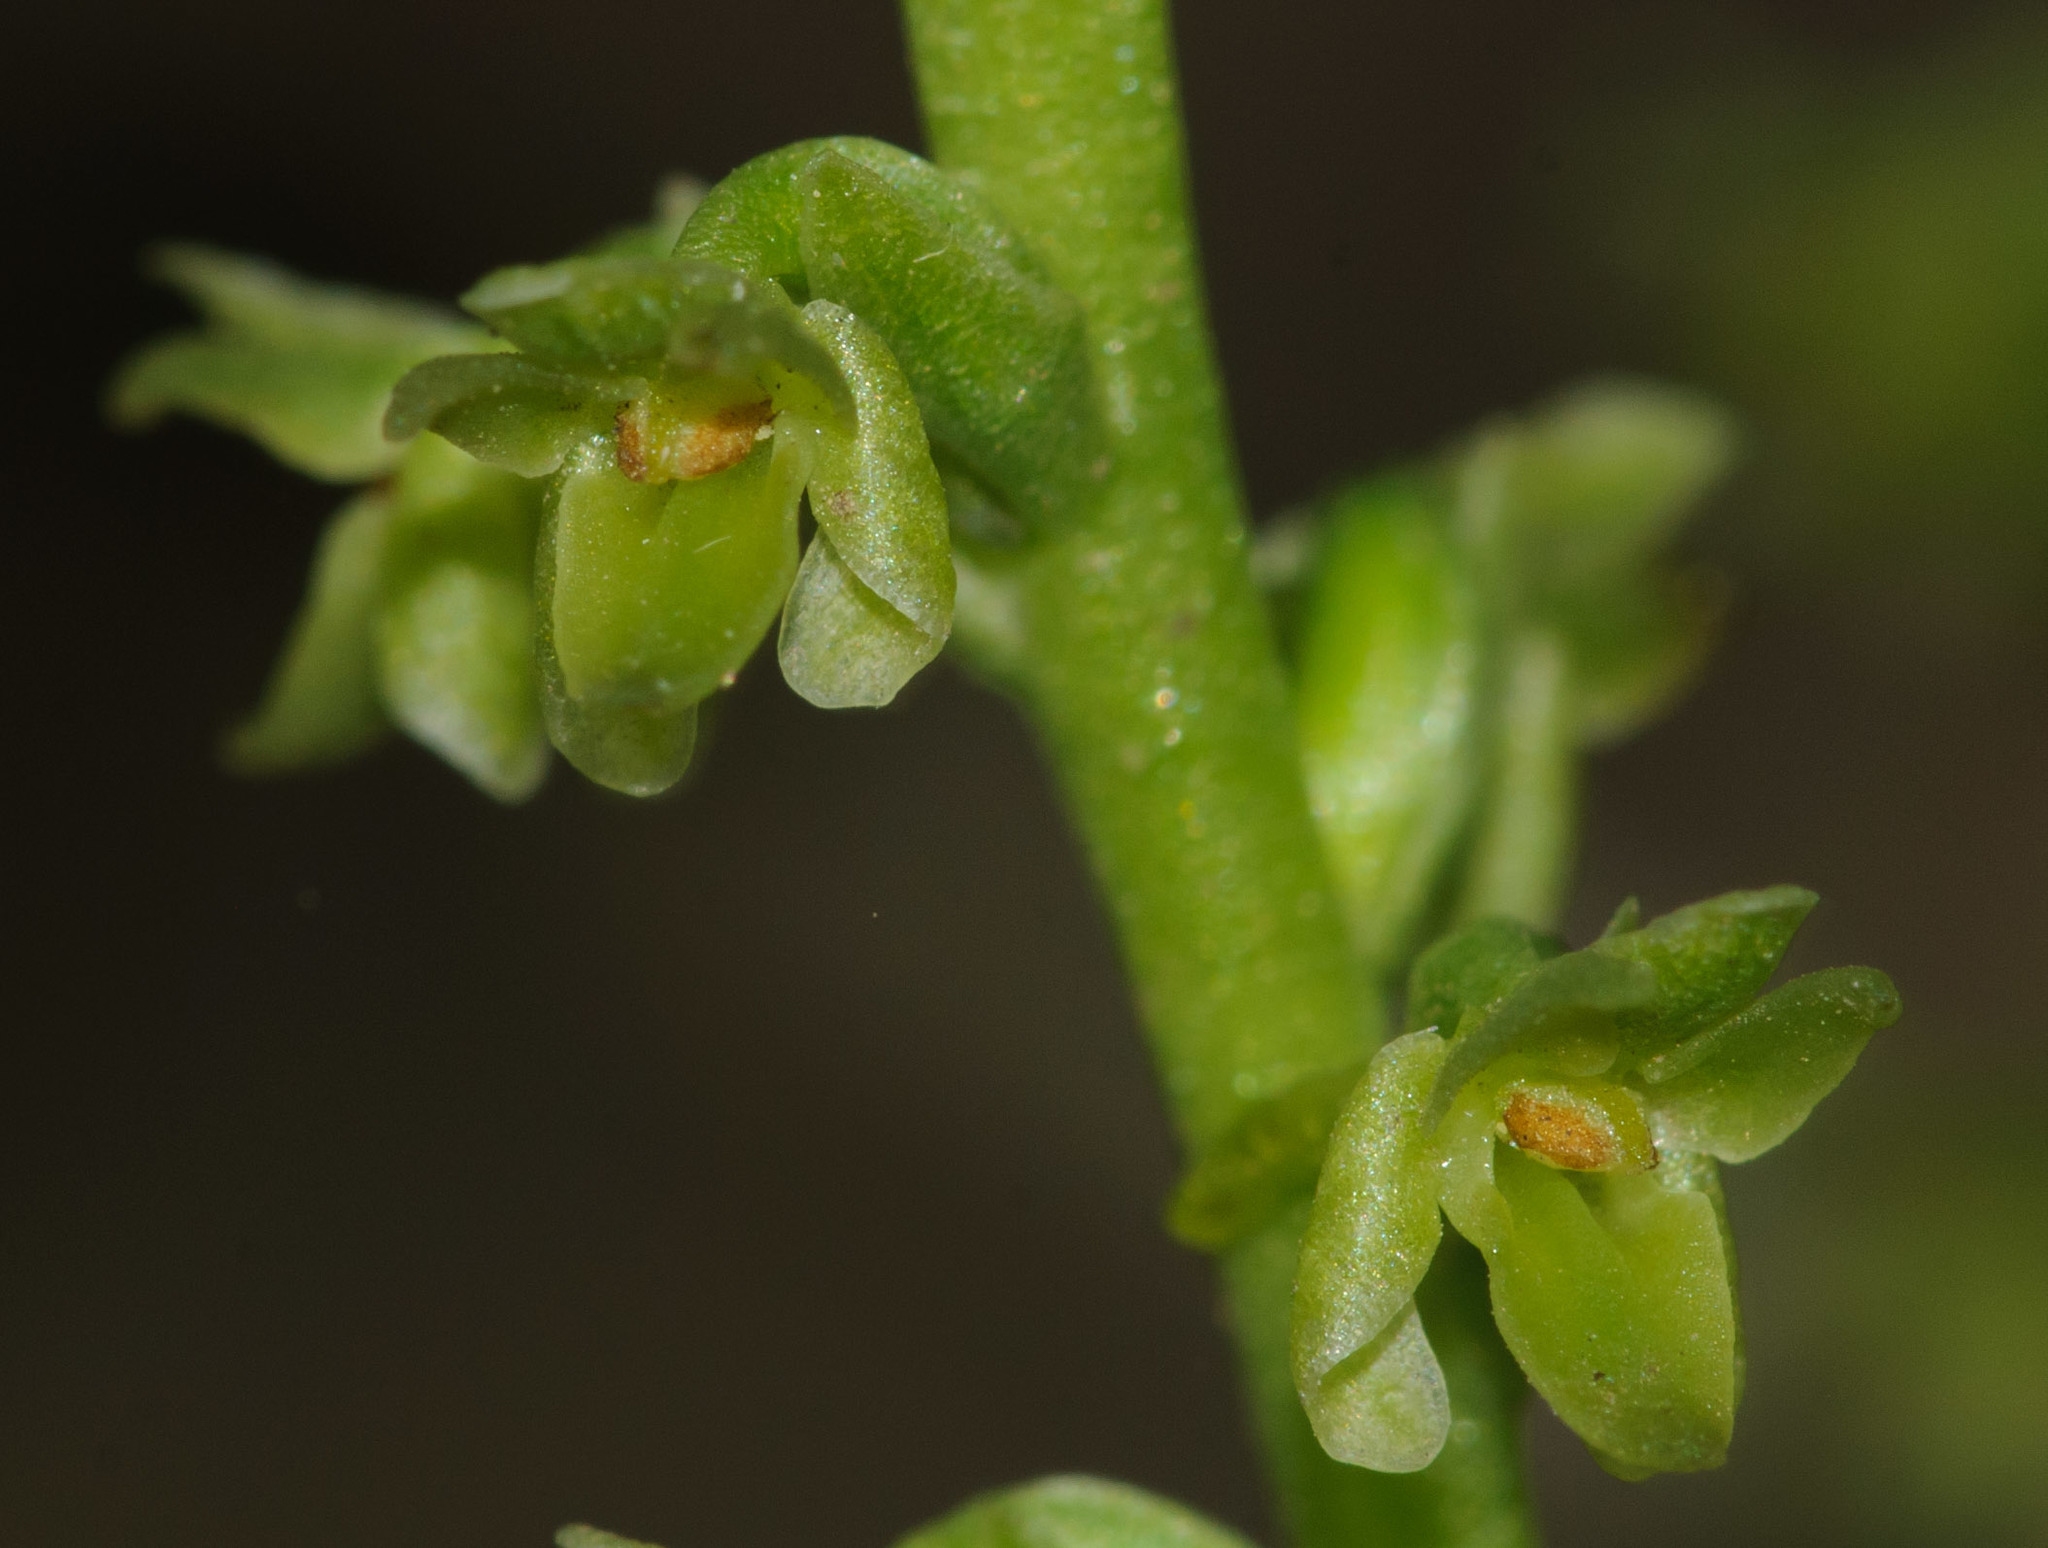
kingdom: Plantae
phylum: Tracheophyta
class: Liliopsida
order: Asparagales
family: Orchidaceae
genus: Platanthera
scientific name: Platanthera unalascensis
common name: Alaska bog orchid
